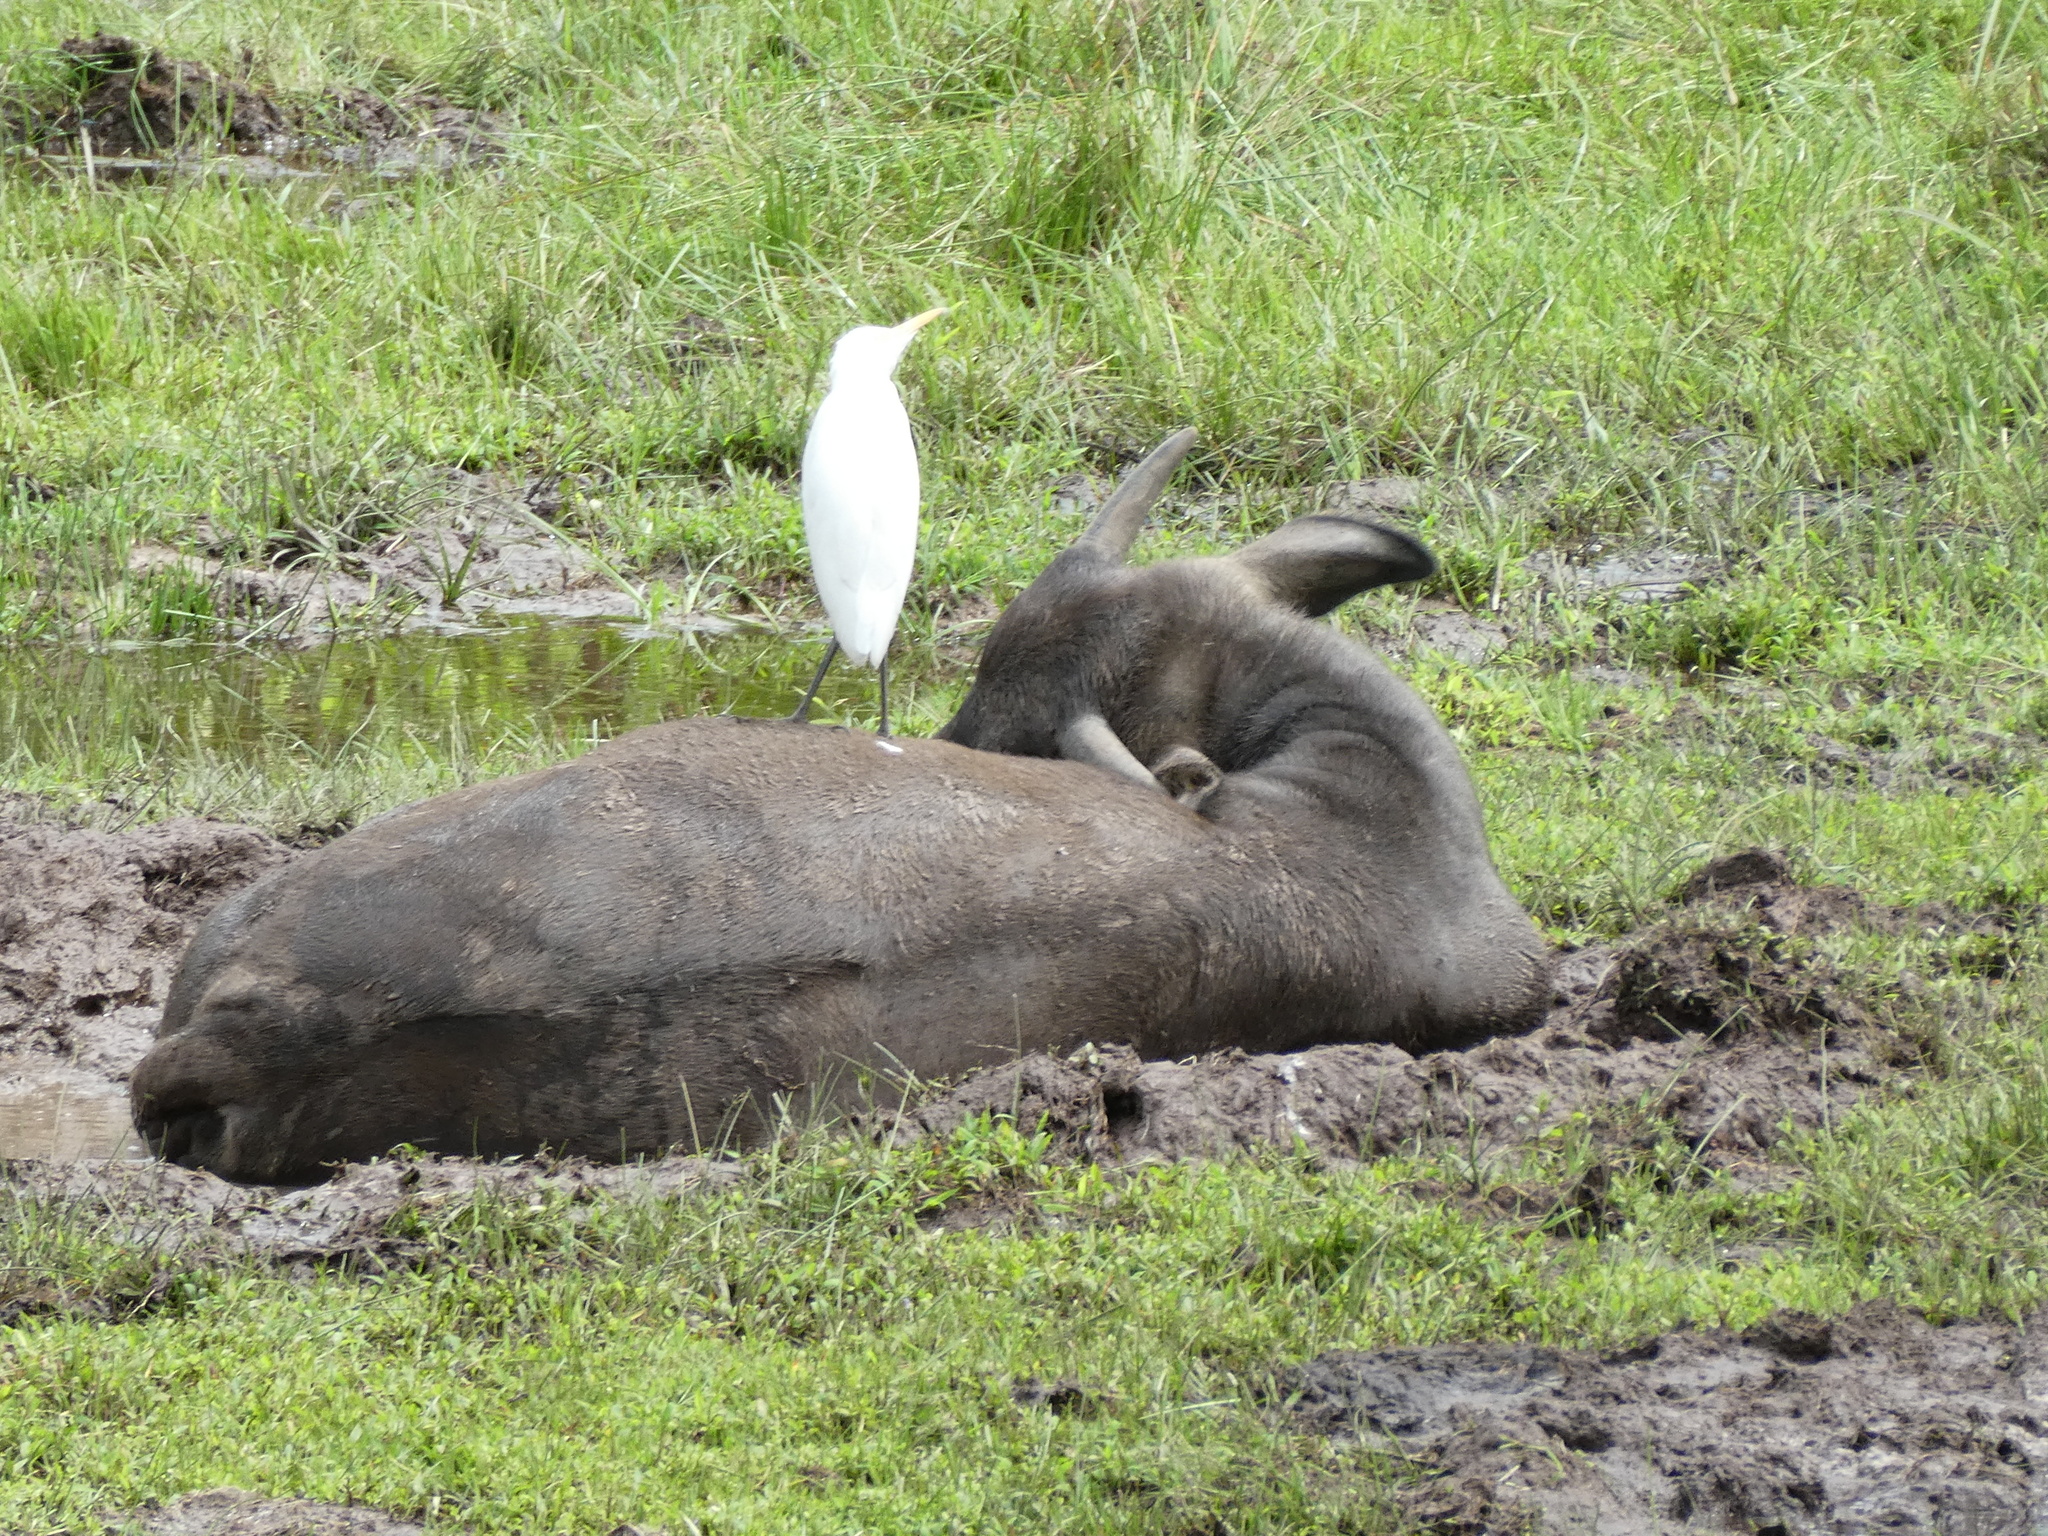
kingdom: Animalia
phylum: Chordata
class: Aves
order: Pelecaniformes
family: Ardeidae
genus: Bubulcus
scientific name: Bubulcus coromandus
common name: Eastern cattle egret
